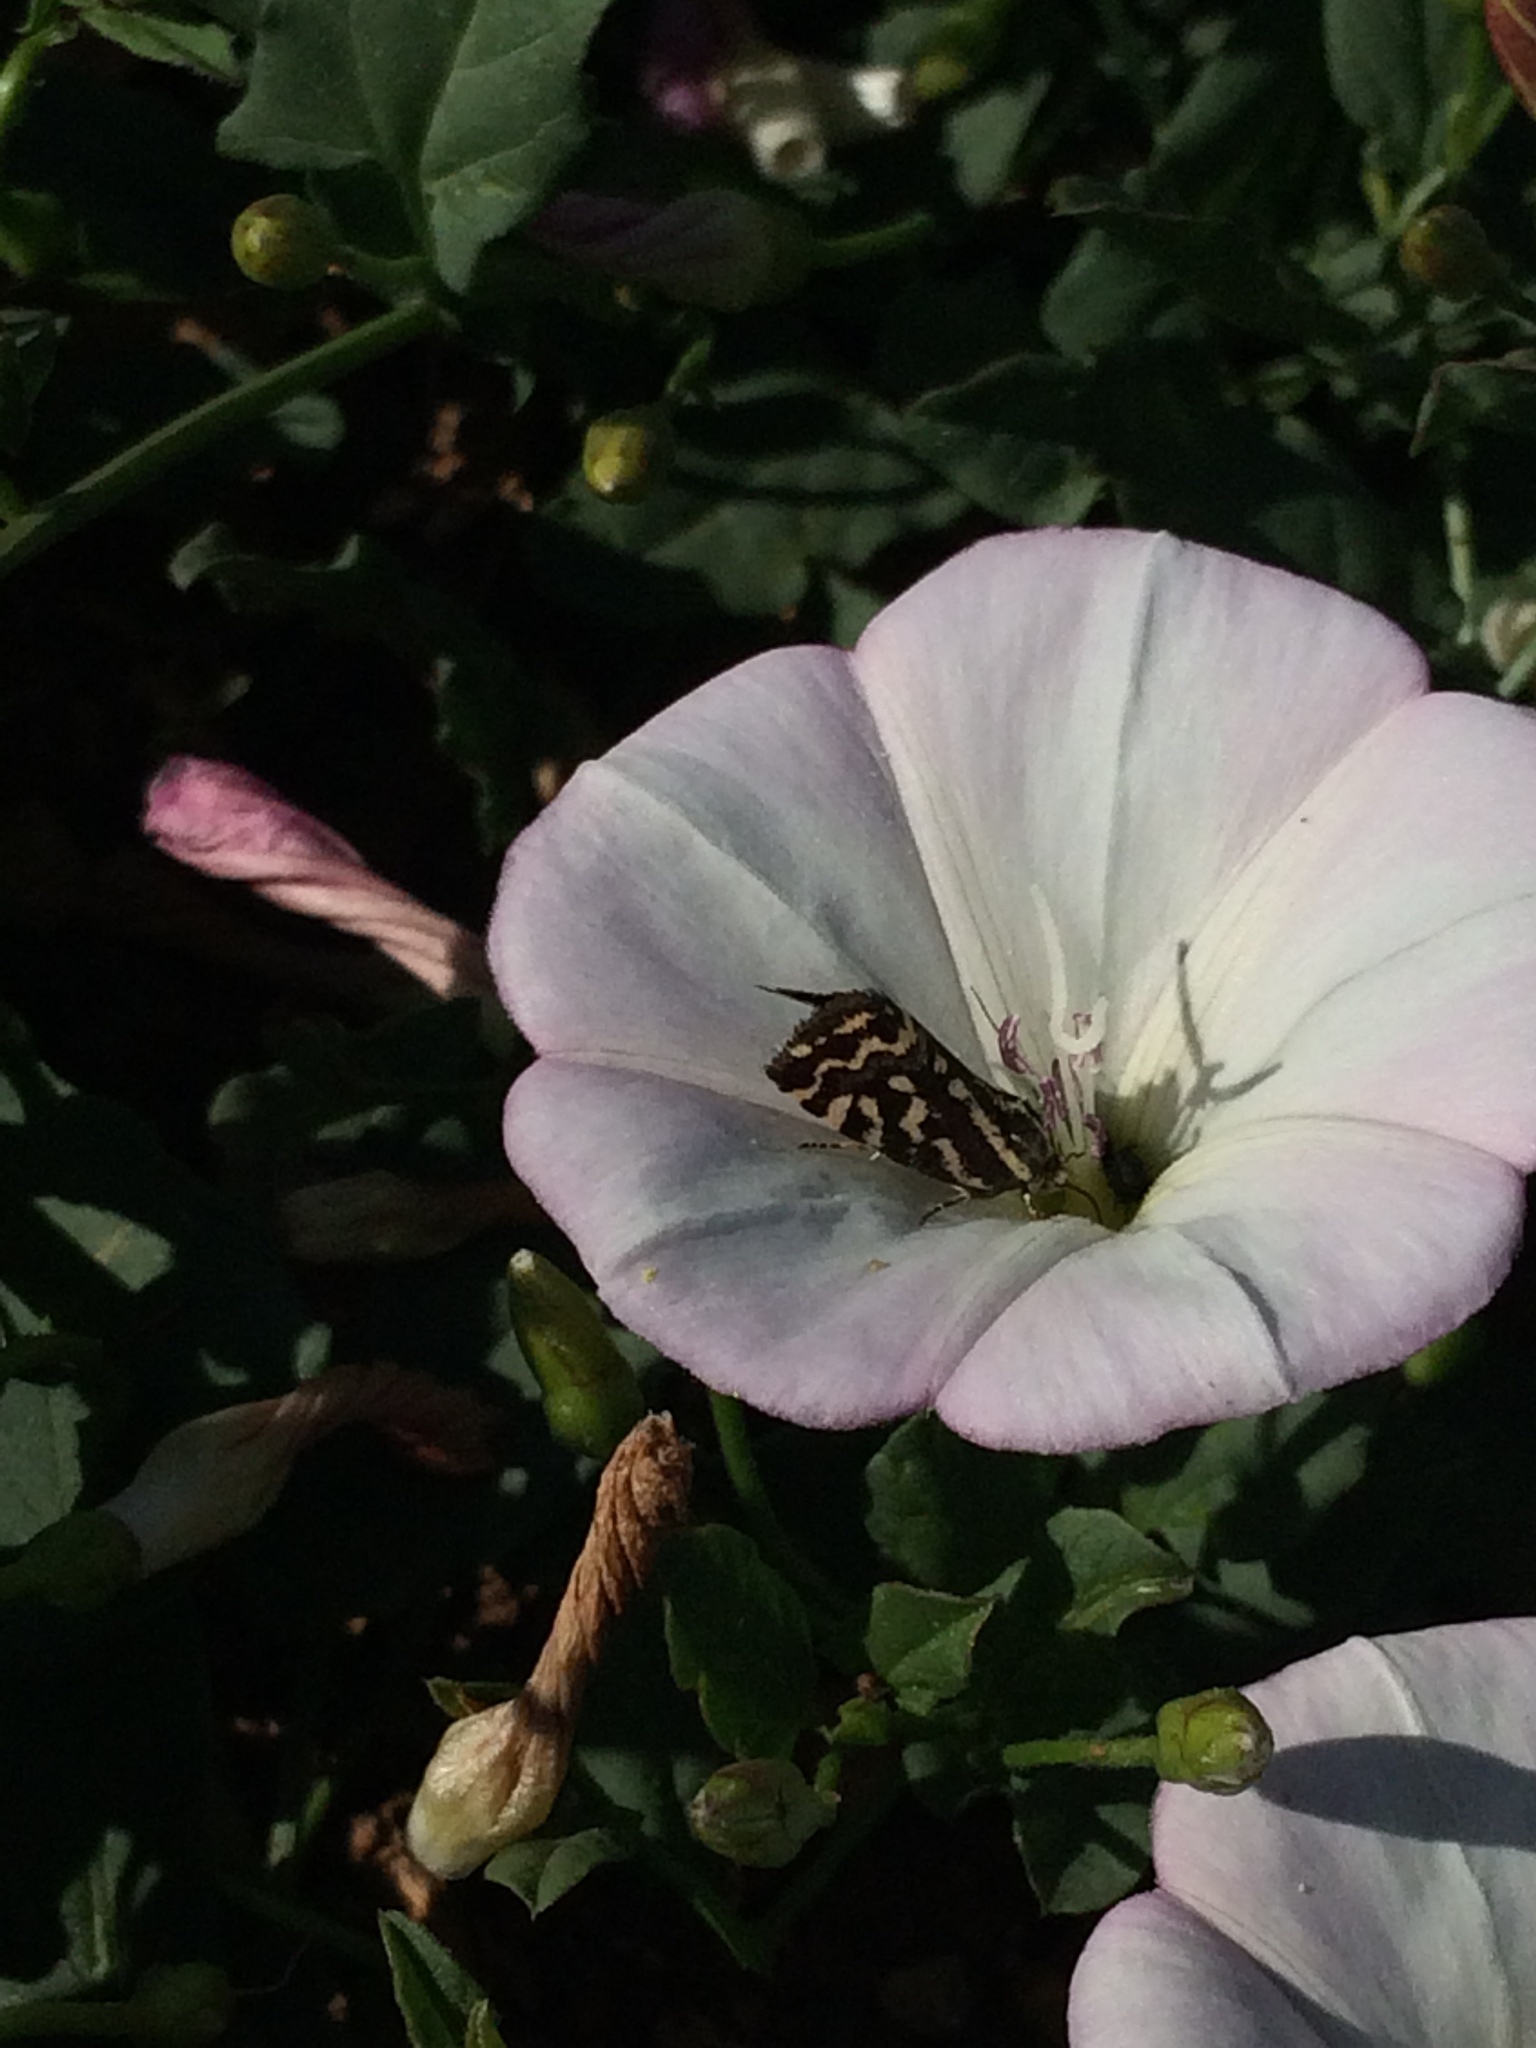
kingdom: Animalia
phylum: Arthropoda
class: Insecta
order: Lepidoptera
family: Noctuidae
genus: Acontia
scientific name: Acontia trabealis
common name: Spotted sulphur
